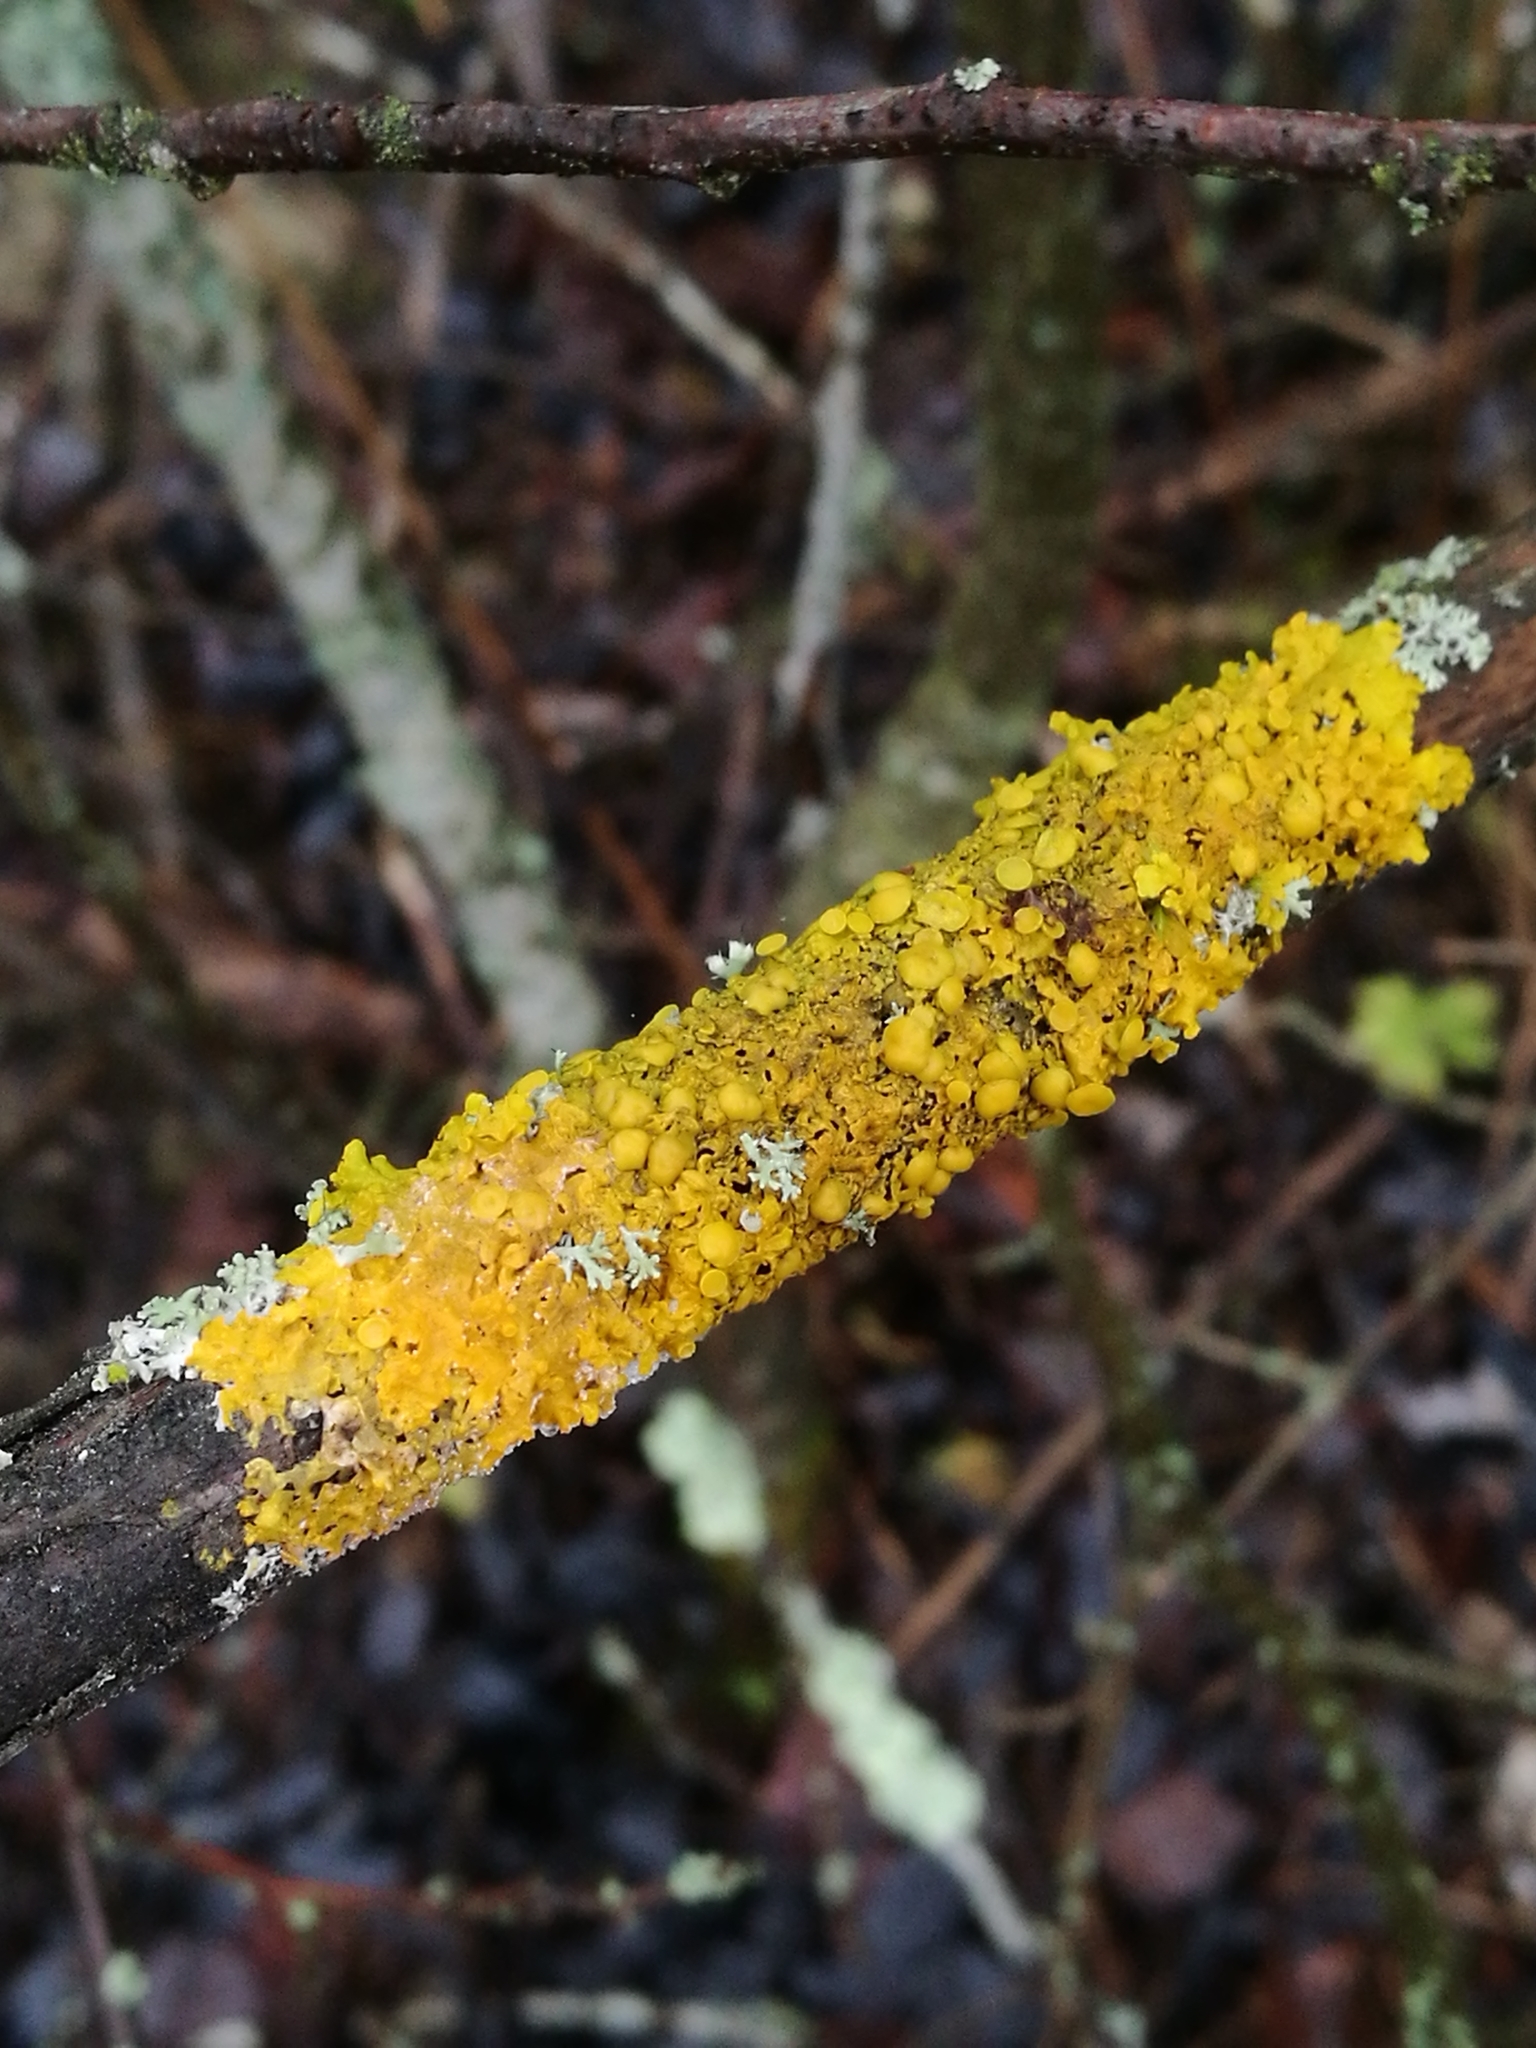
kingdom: Fungi
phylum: Ascomycota
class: Lecanoromycetes
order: Teloschistales
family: Teloschistaceae
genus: Xanthoria
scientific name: Xanthoria parietina
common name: Common orange lichen
